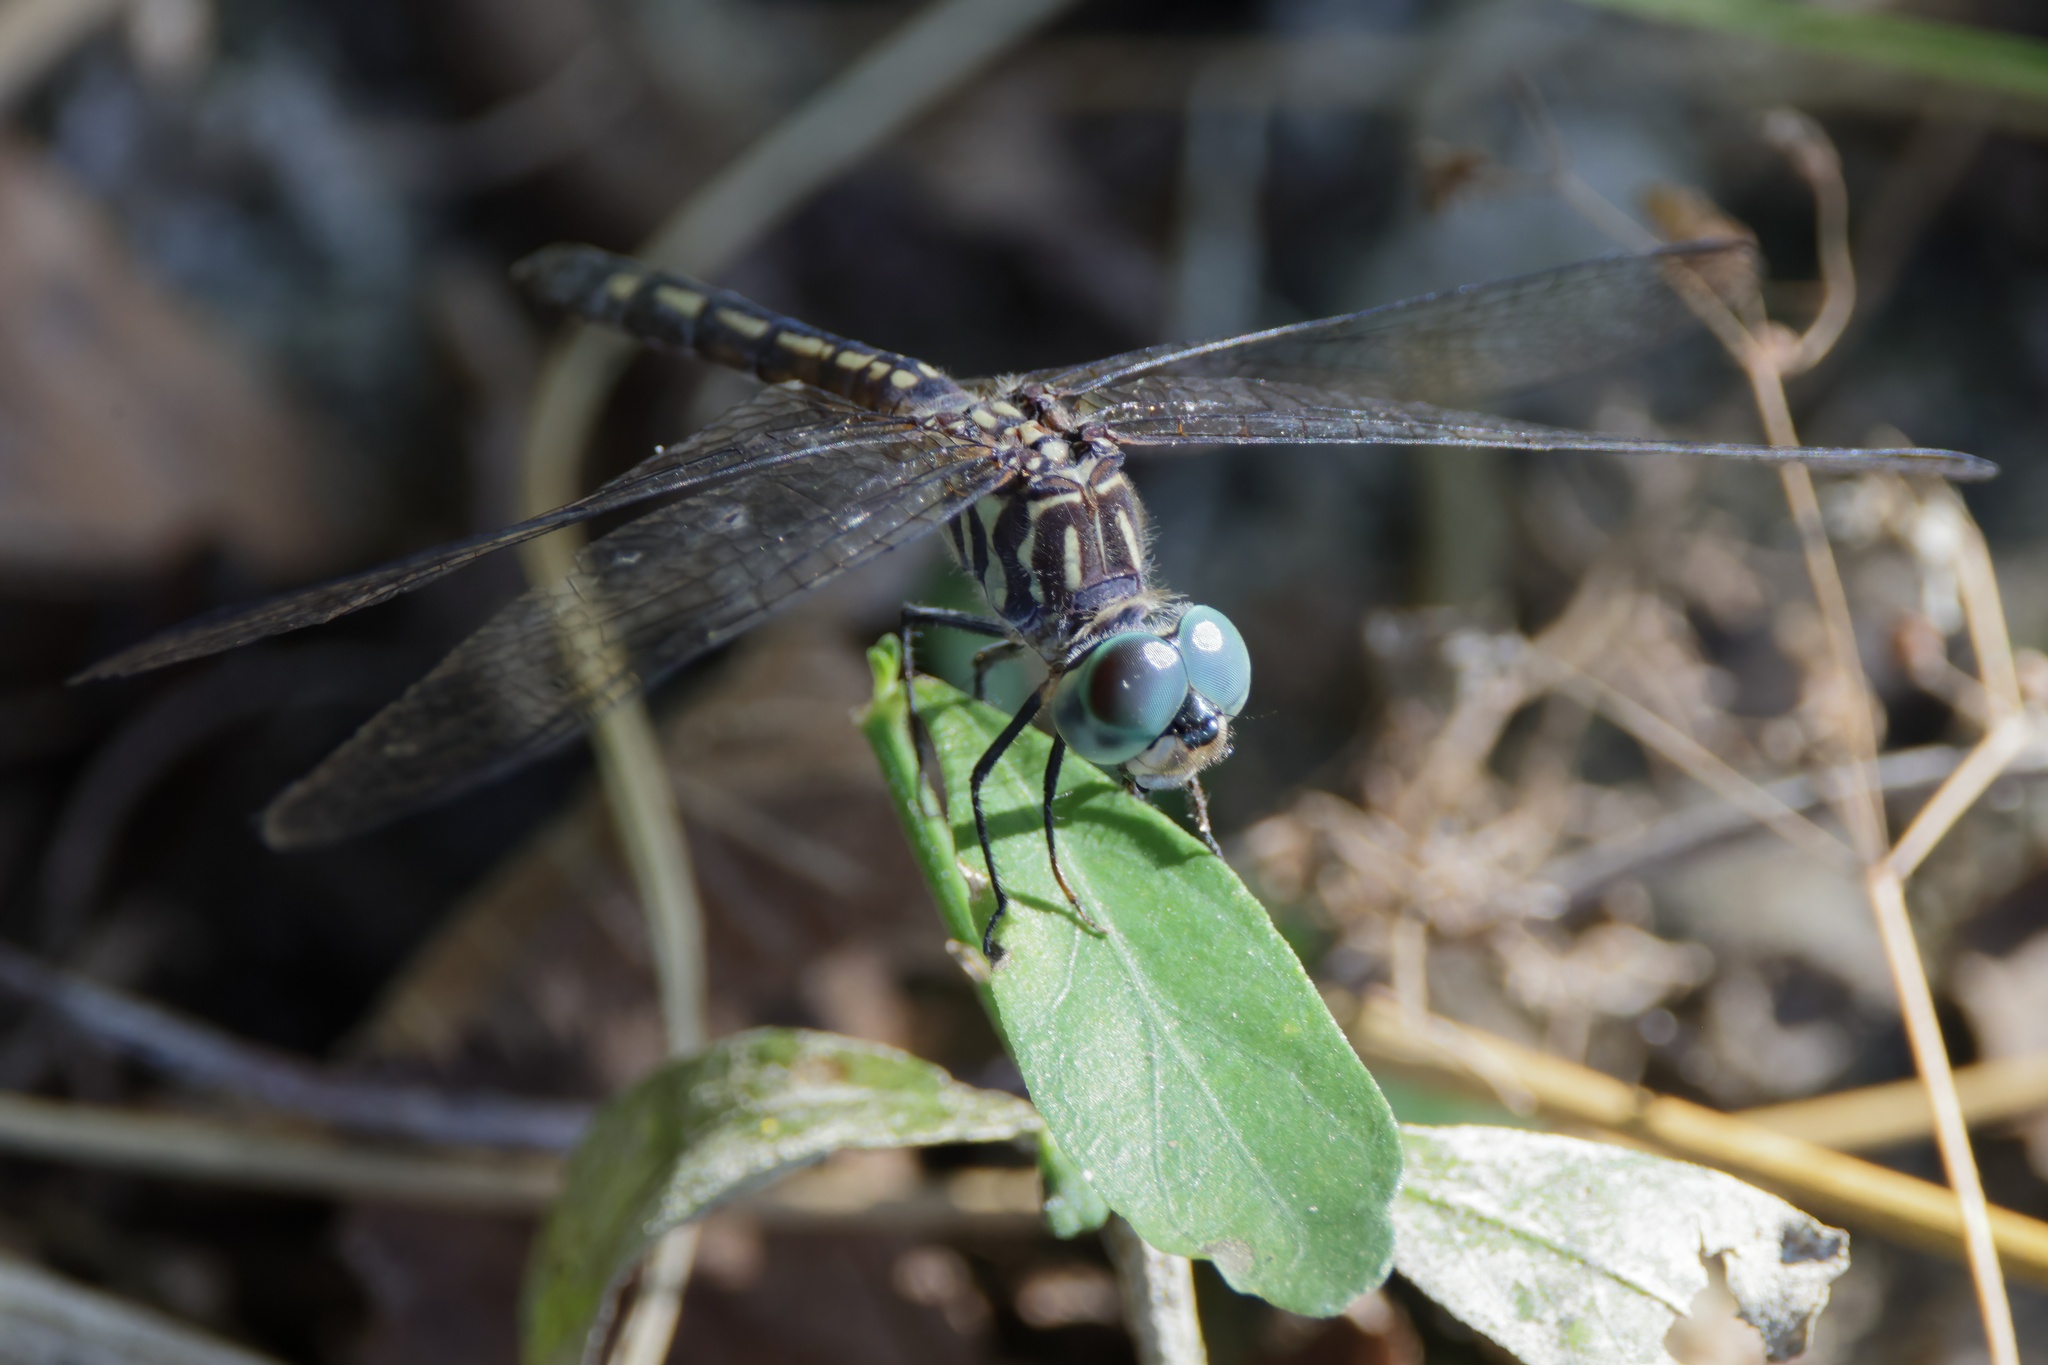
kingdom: Animalia
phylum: Arthropoda
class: Insecta
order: Odonata
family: Libellulidae
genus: Pachydiplax
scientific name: Pachydiplax longipennis
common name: Blue dasher
